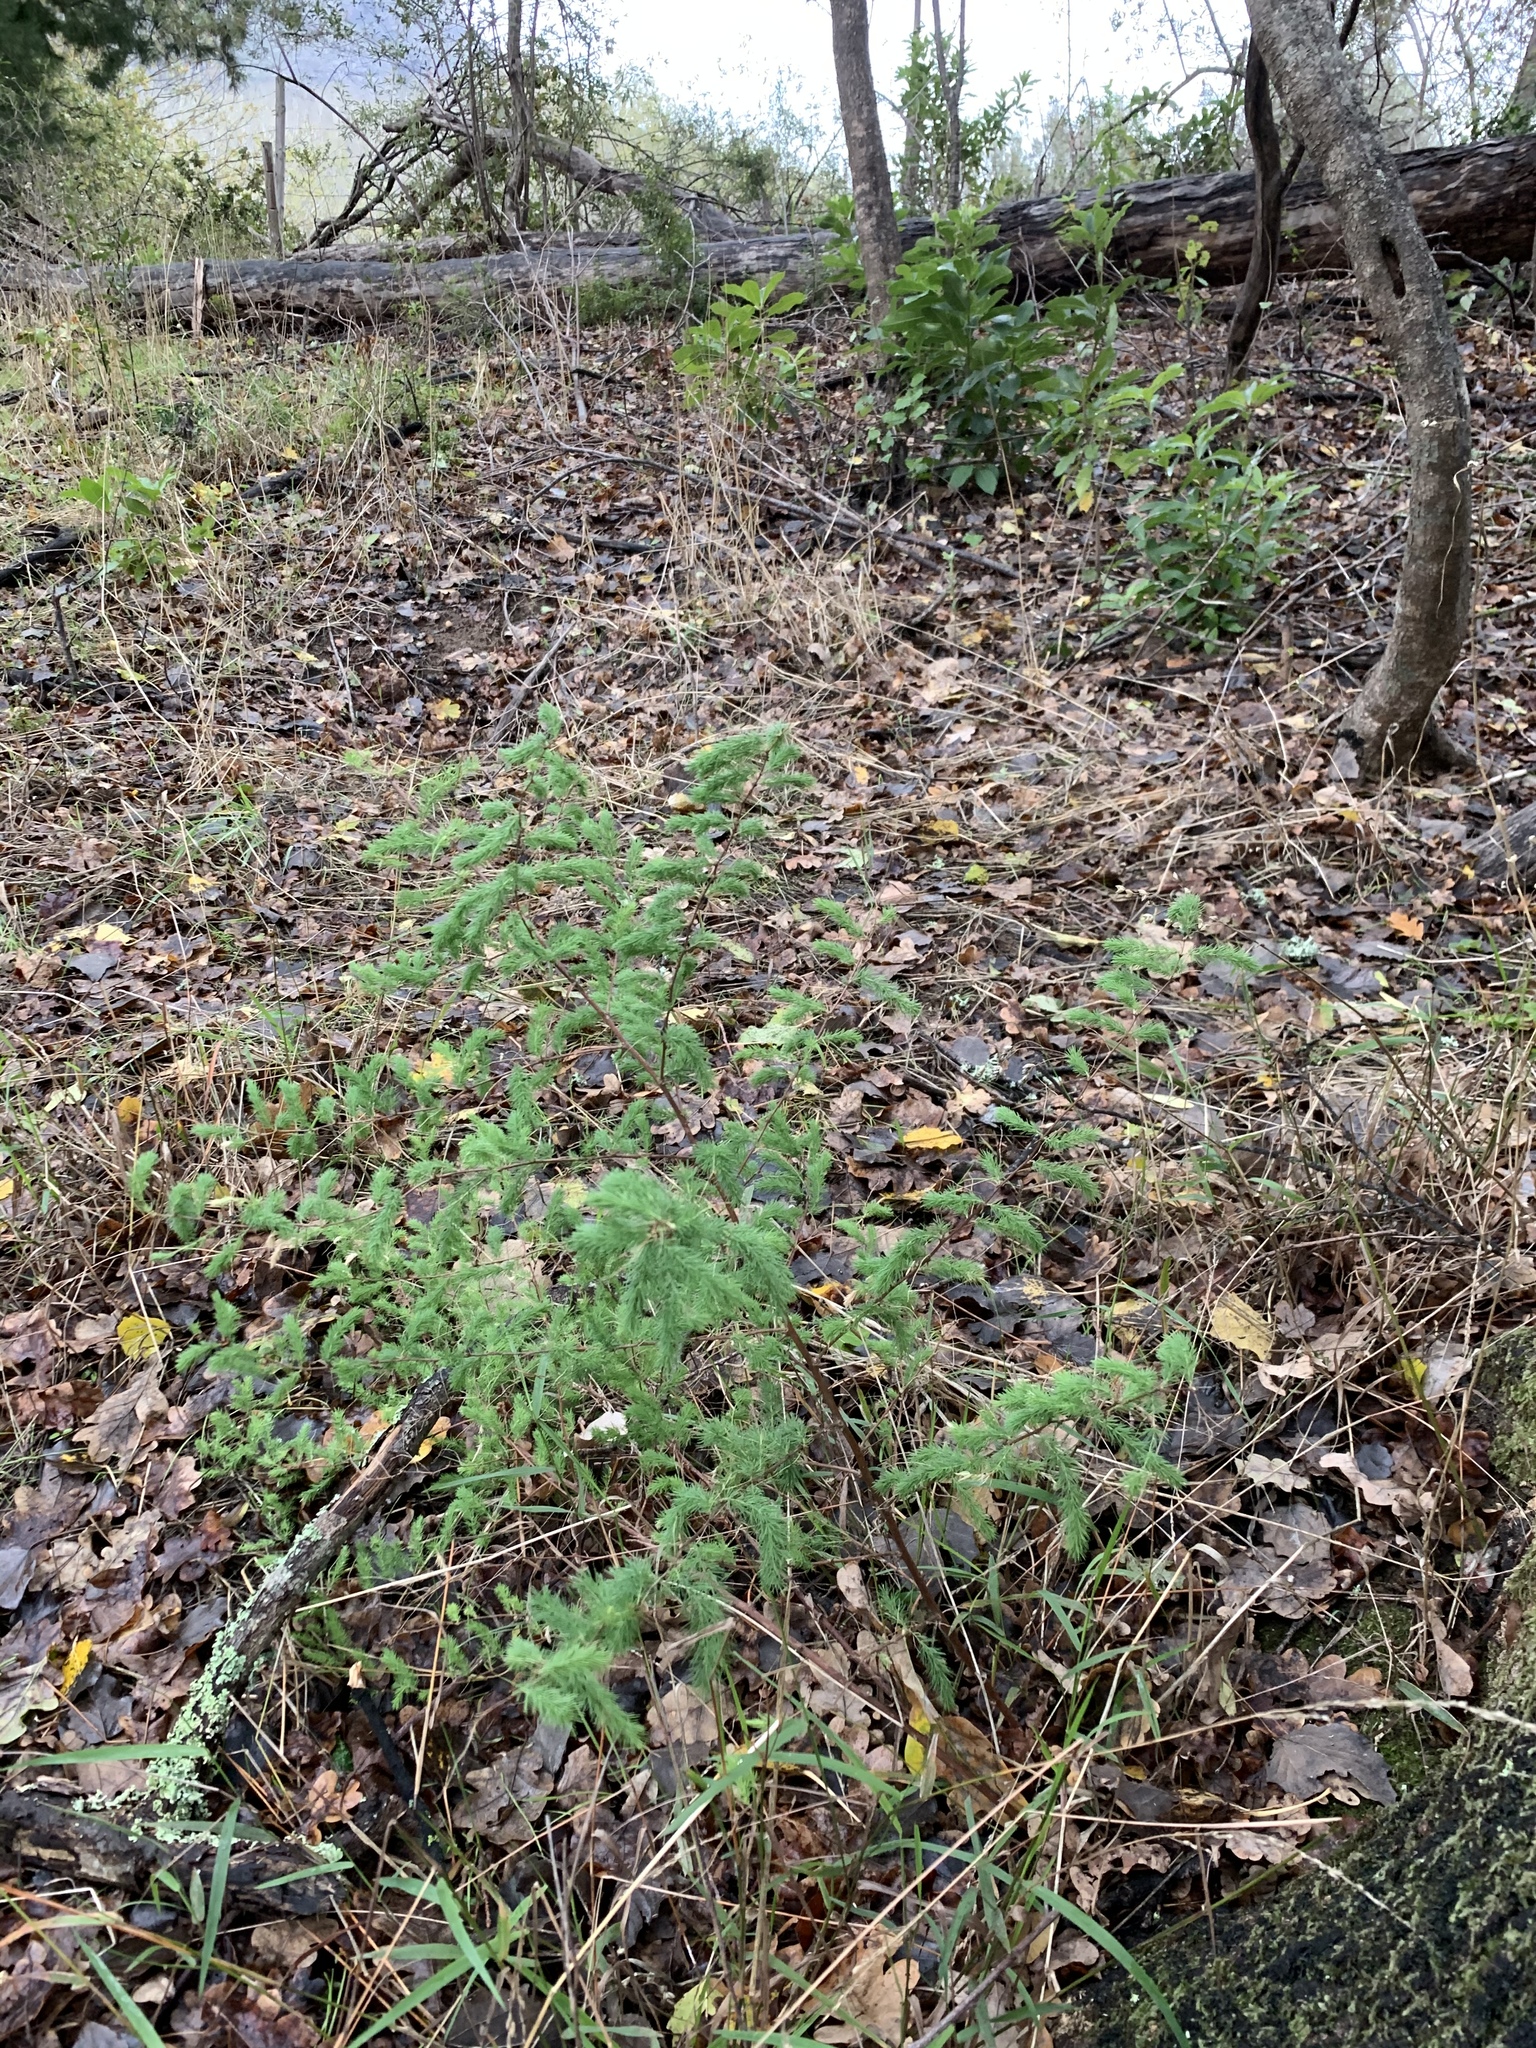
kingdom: Plantae
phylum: Tracheophyta
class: Liliopsida
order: Asparagales
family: Asparagaceae
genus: Asparagus
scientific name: Asparagus rubicundus
